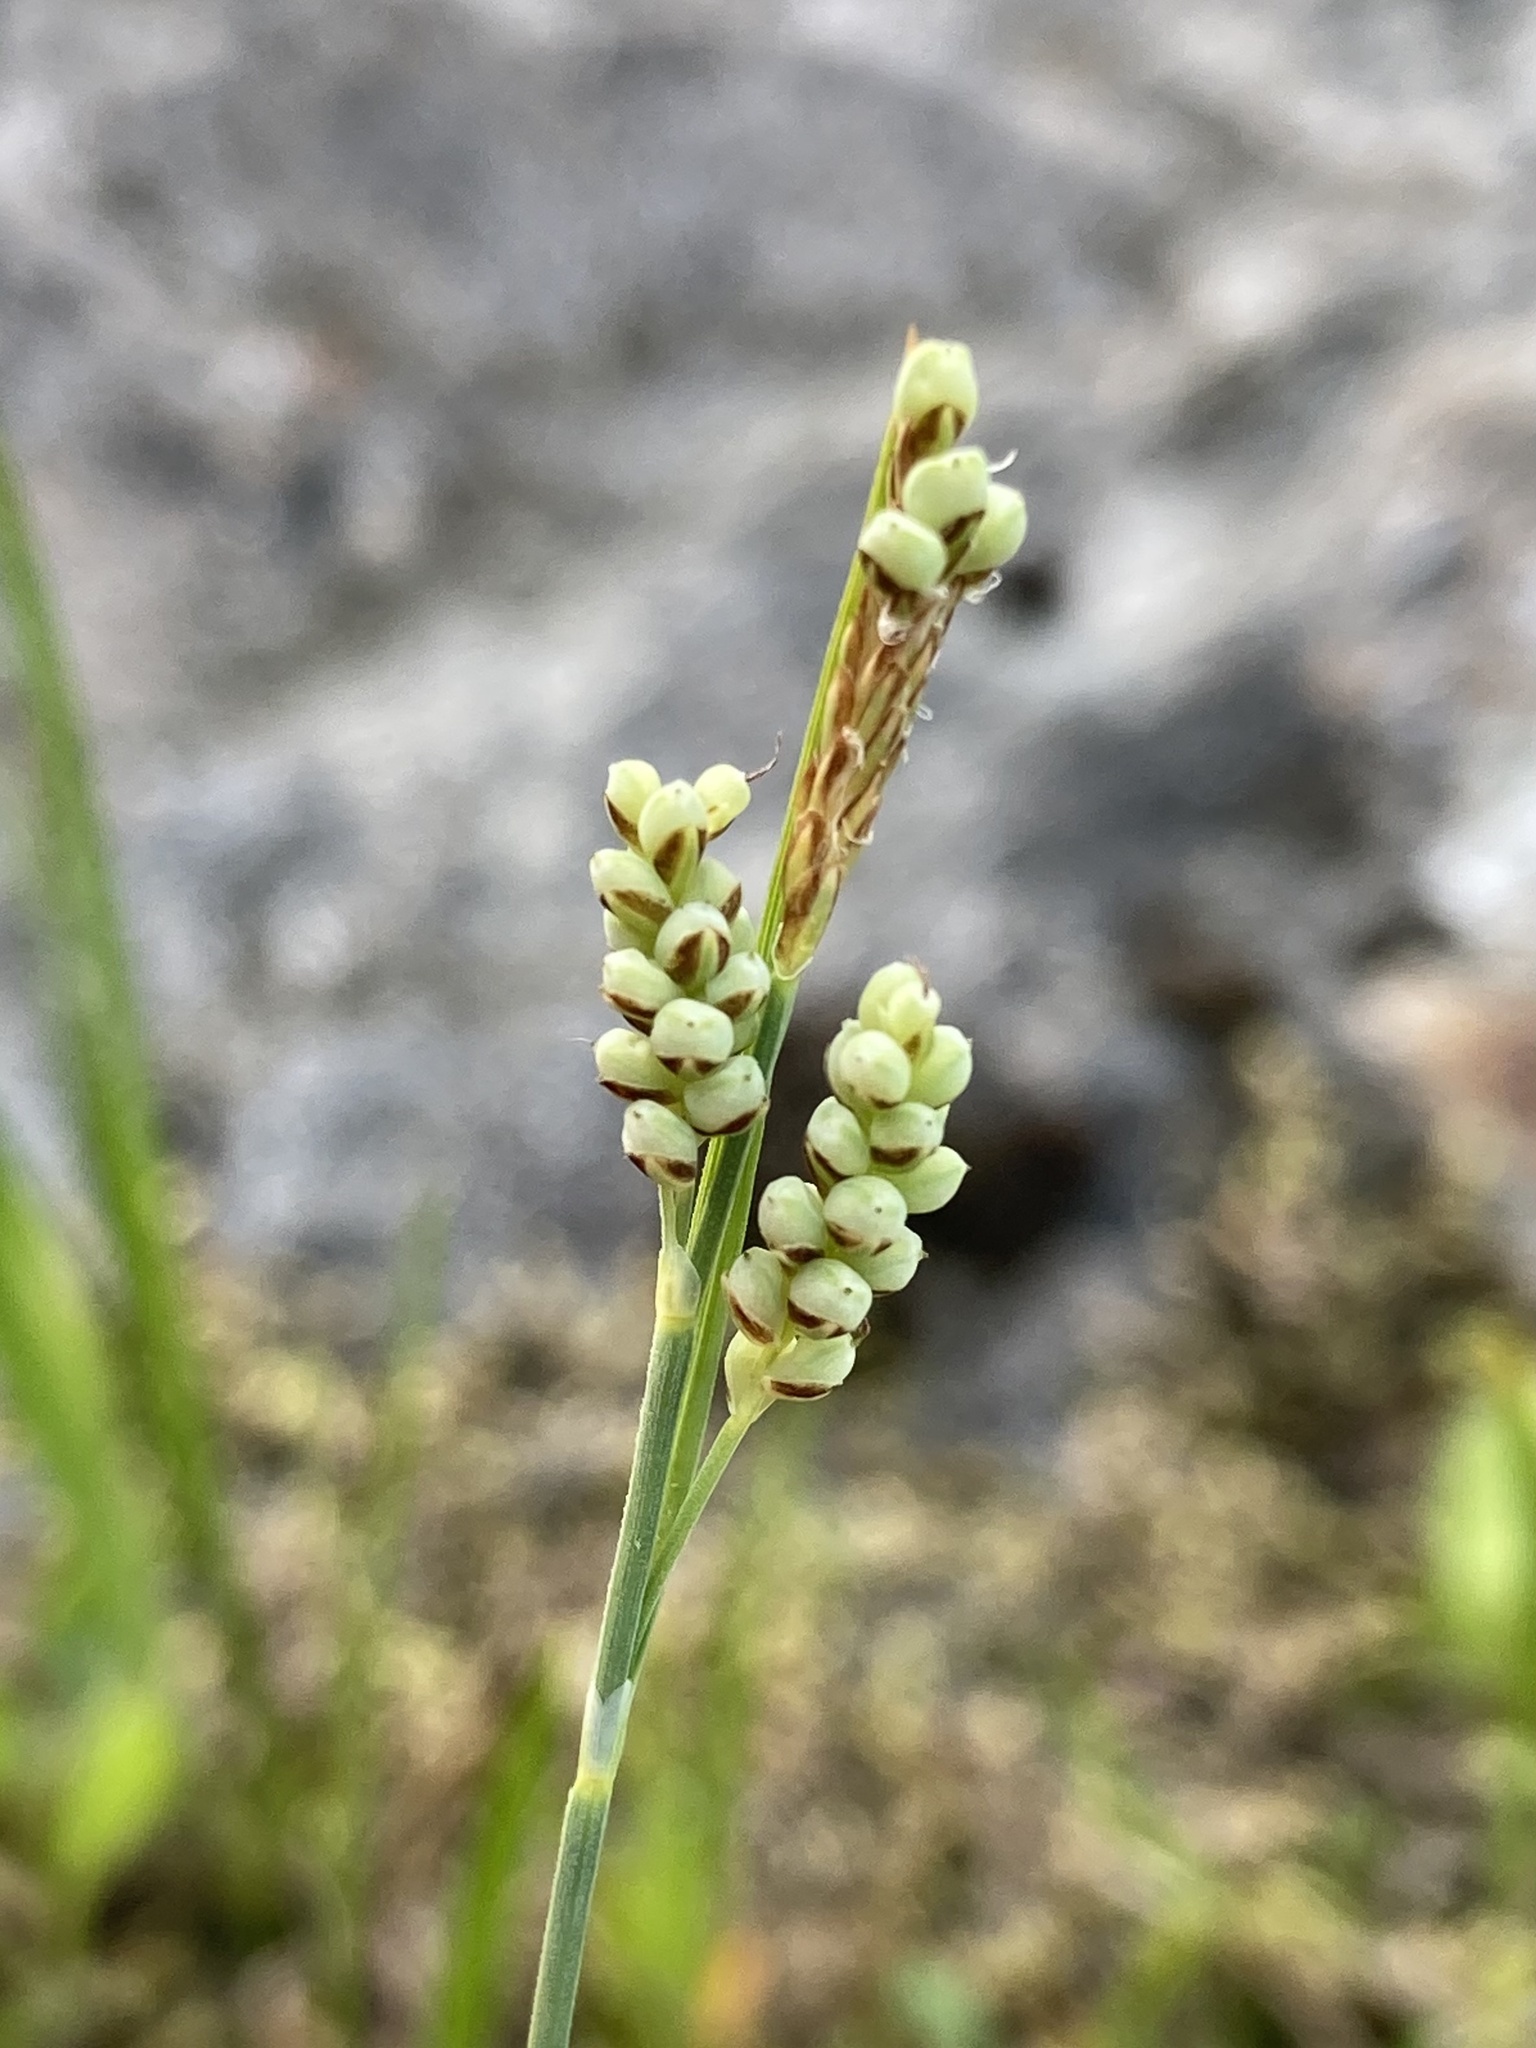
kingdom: Plantae
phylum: Tracheophyta
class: Liliopsida
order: Poales
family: Cyperaceae
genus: Carex
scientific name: Carex garberi
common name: Elk sedge
